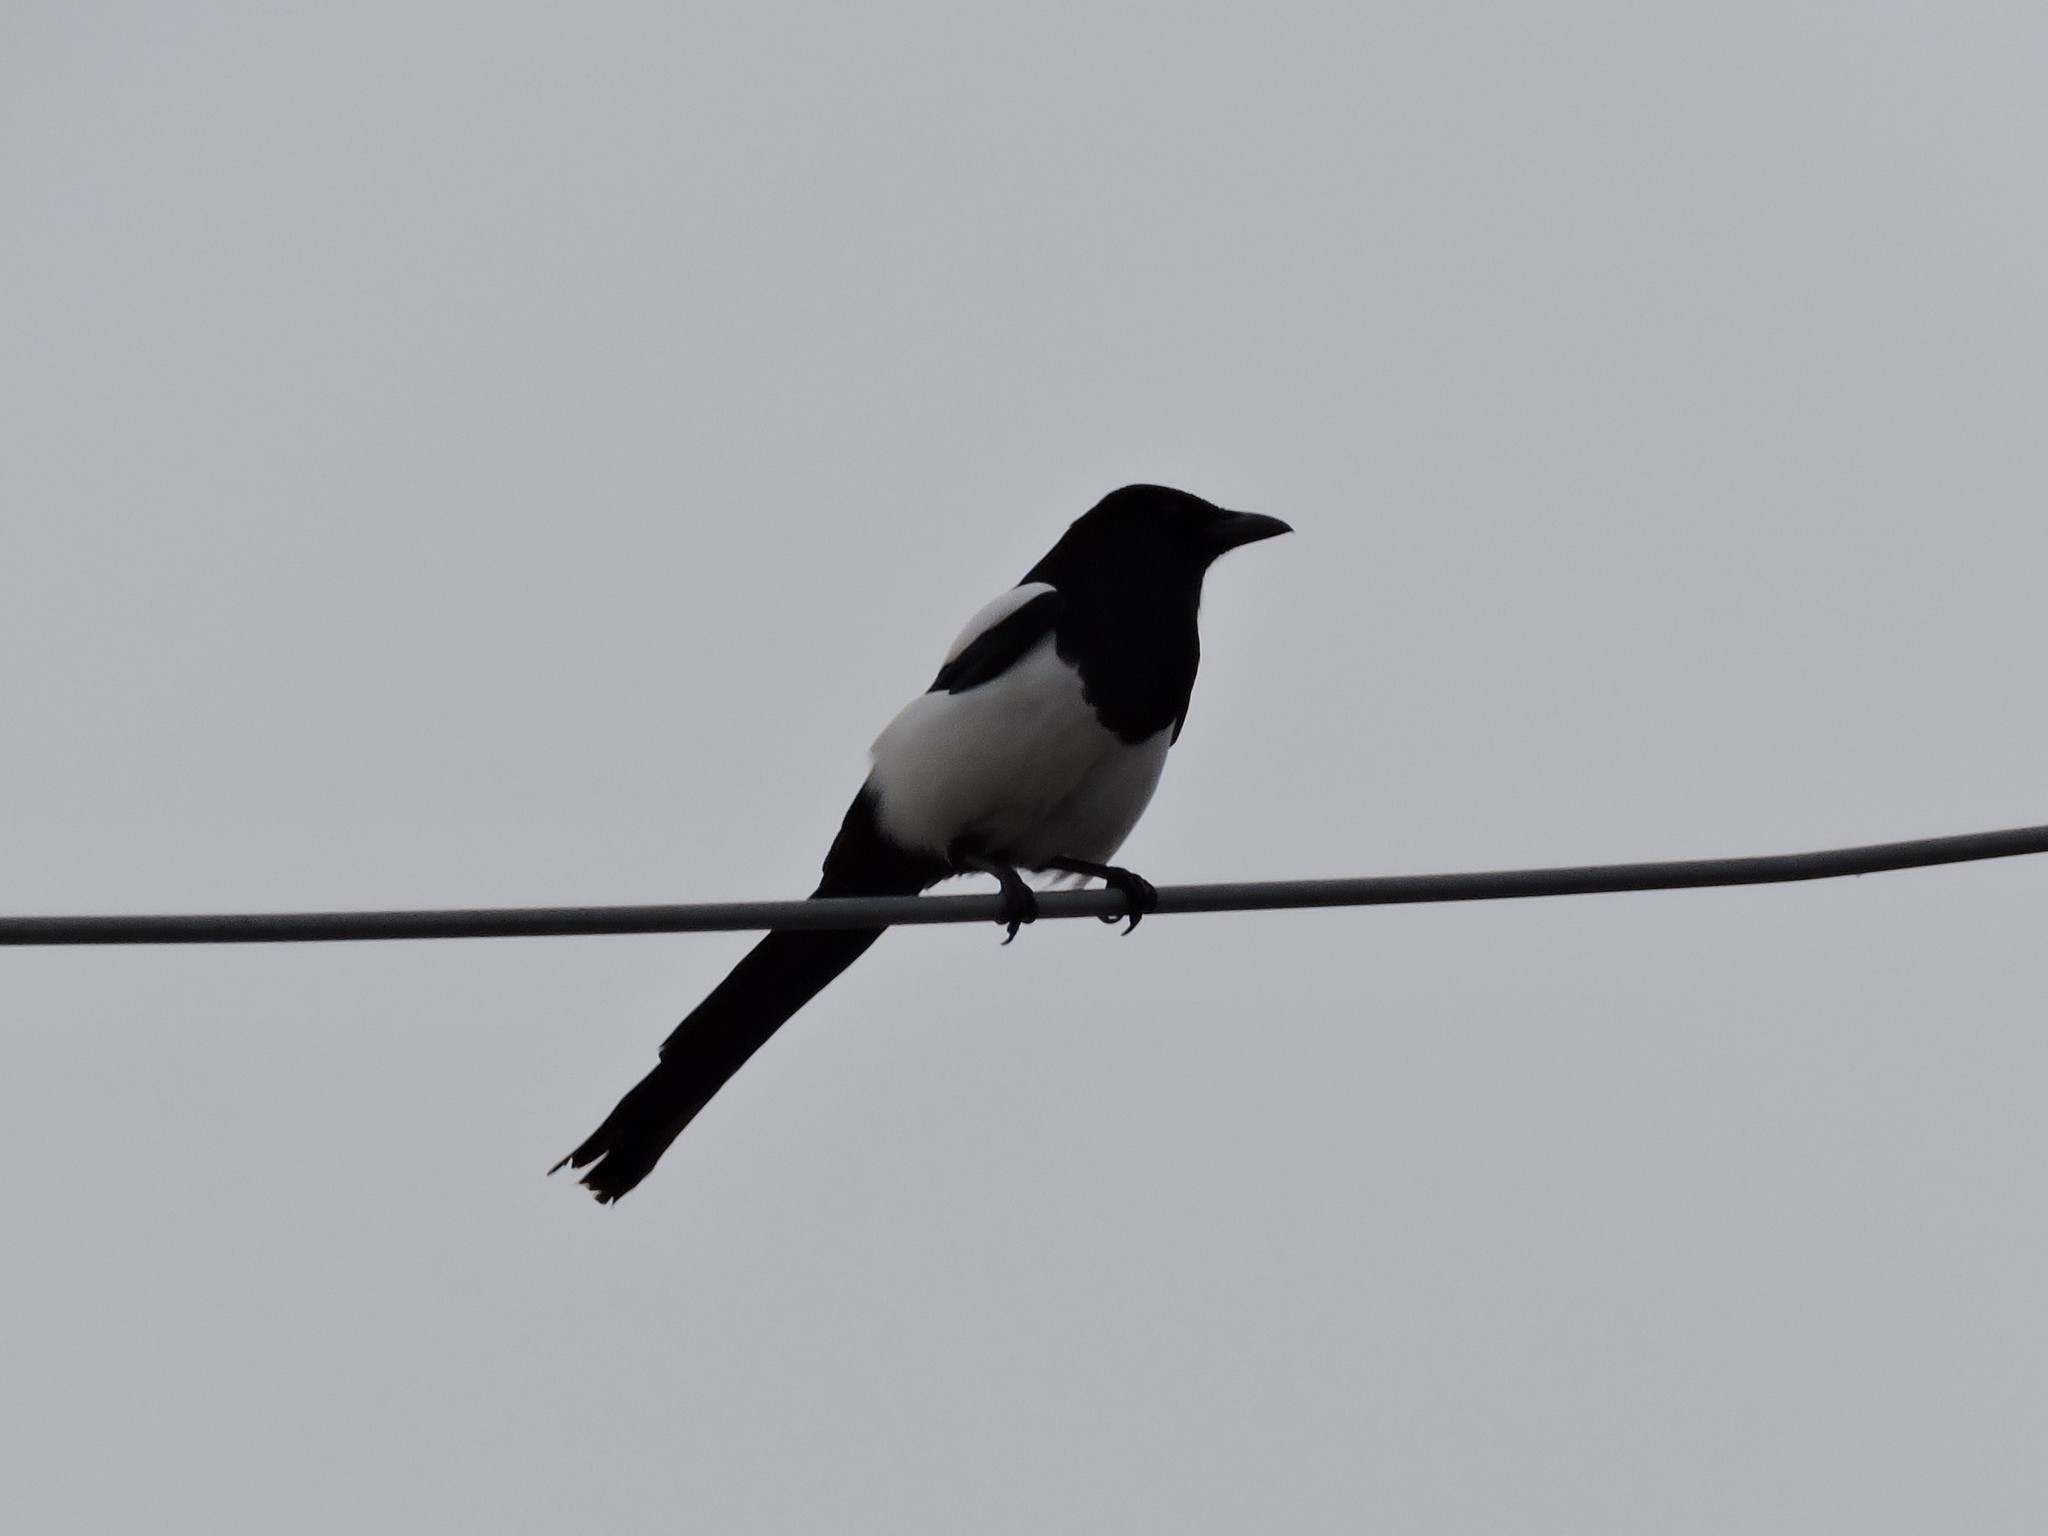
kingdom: Animalia
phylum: Chordata
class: Aves
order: Passeriformes
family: Corvidae
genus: Pica
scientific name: Pica pica
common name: Eurasian magpie
